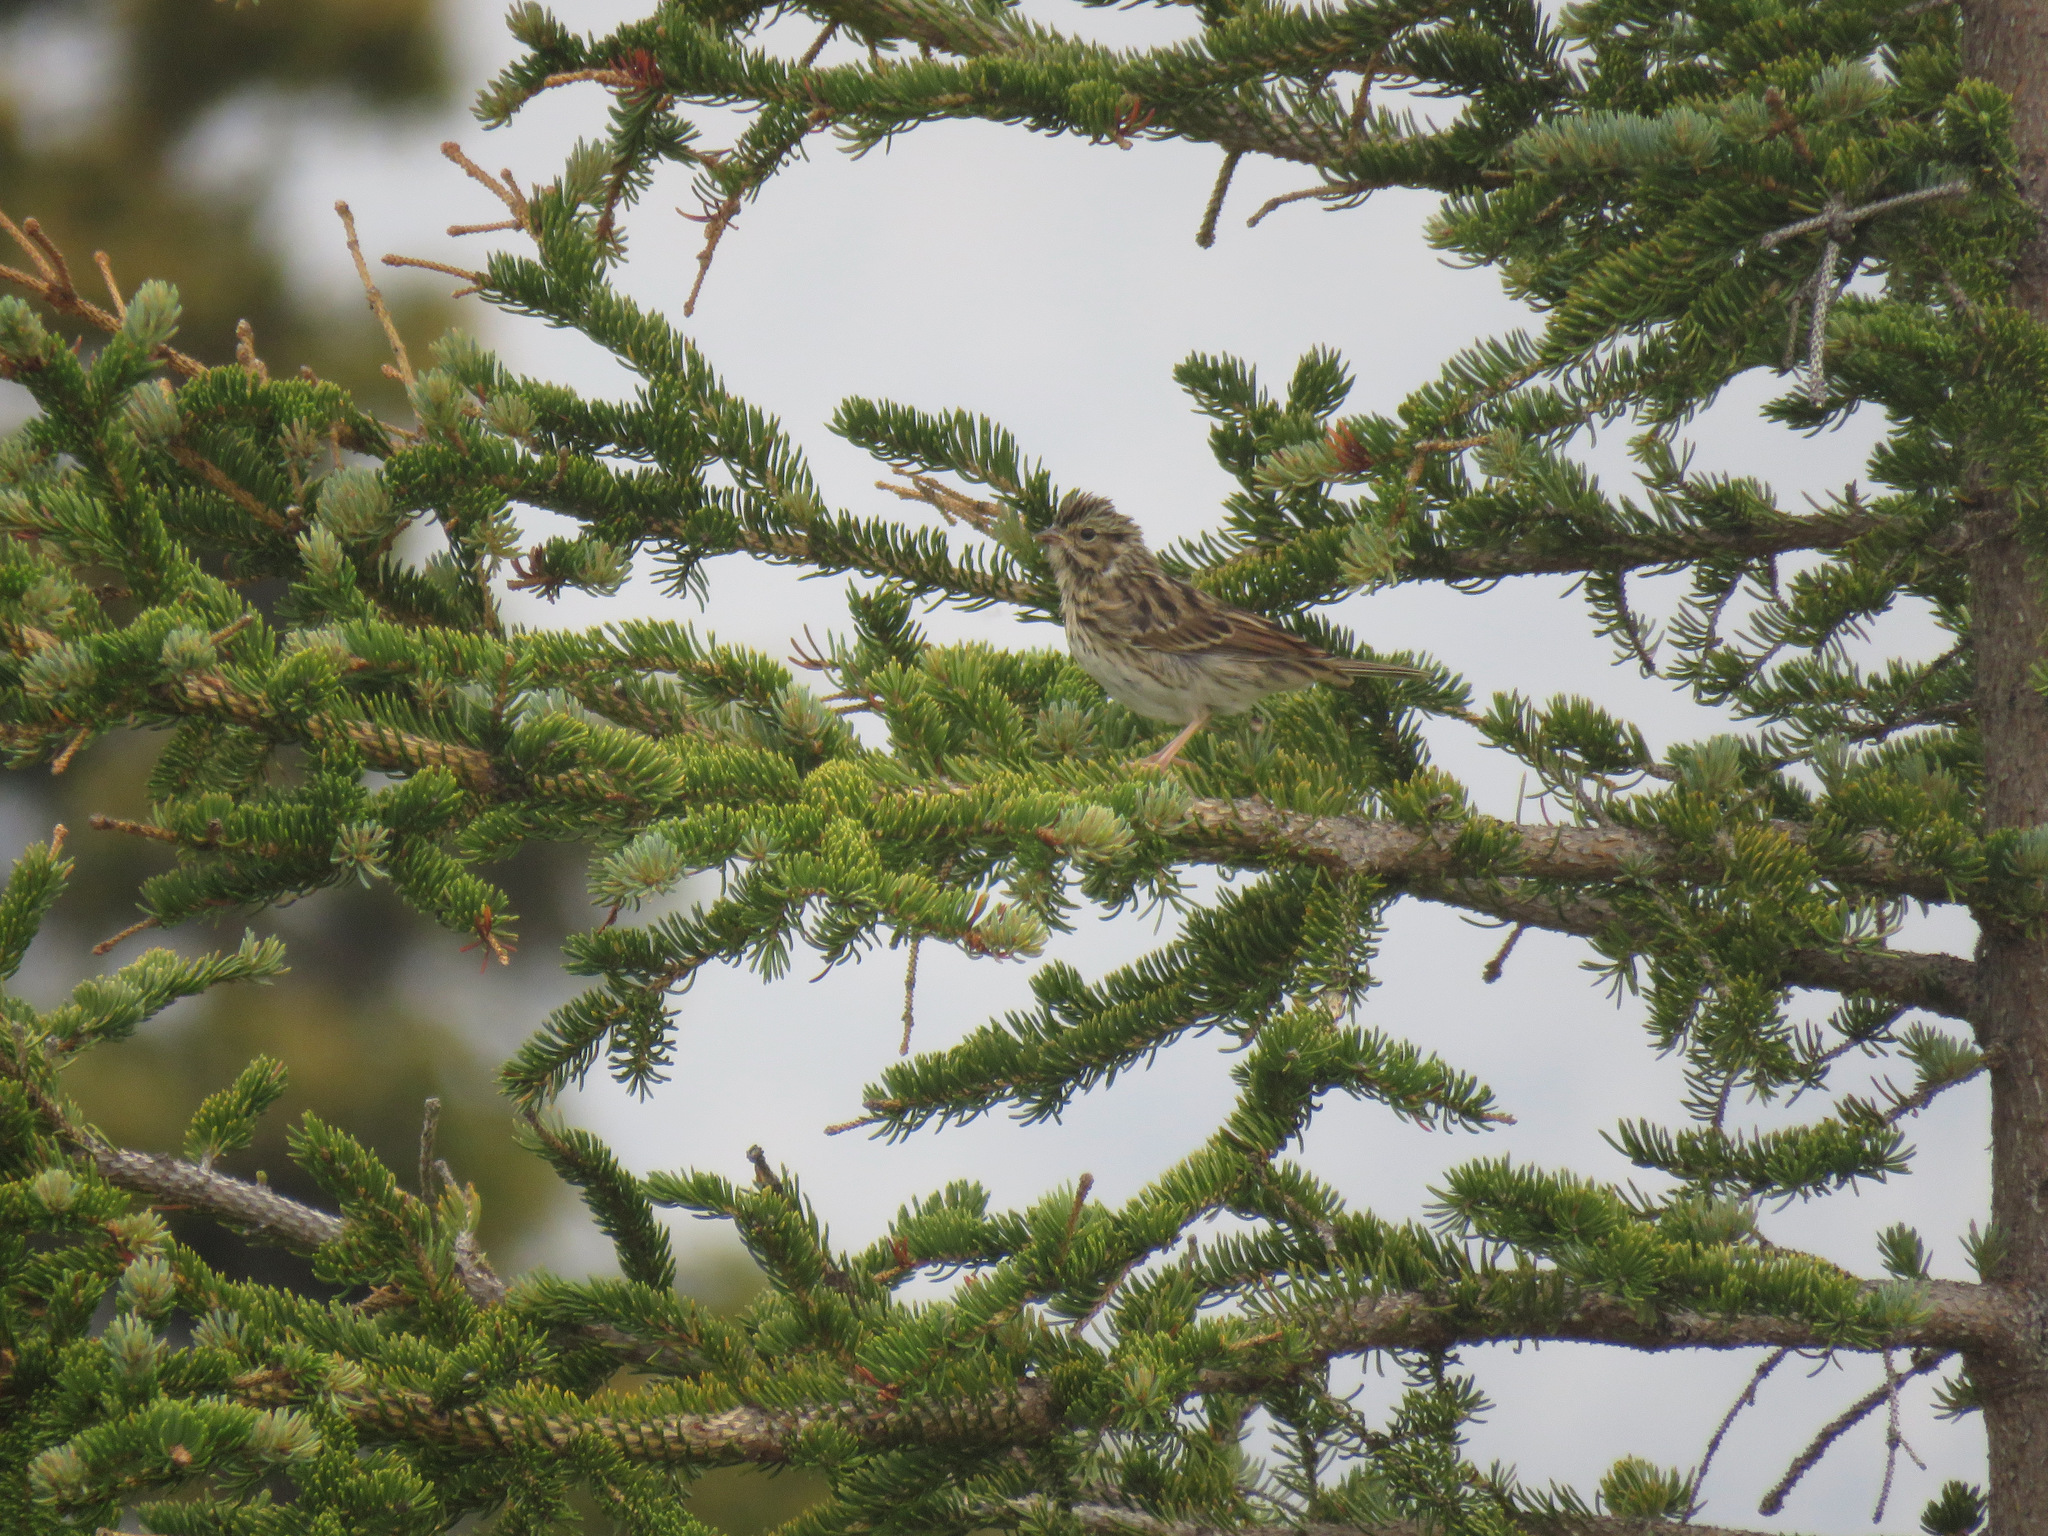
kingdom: Animalia
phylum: Chordata
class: Aves
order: Passeriformes
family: Passerellidae
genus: Passerculus
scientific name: Passerculus sandwichensis
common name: Savannah sparrow
